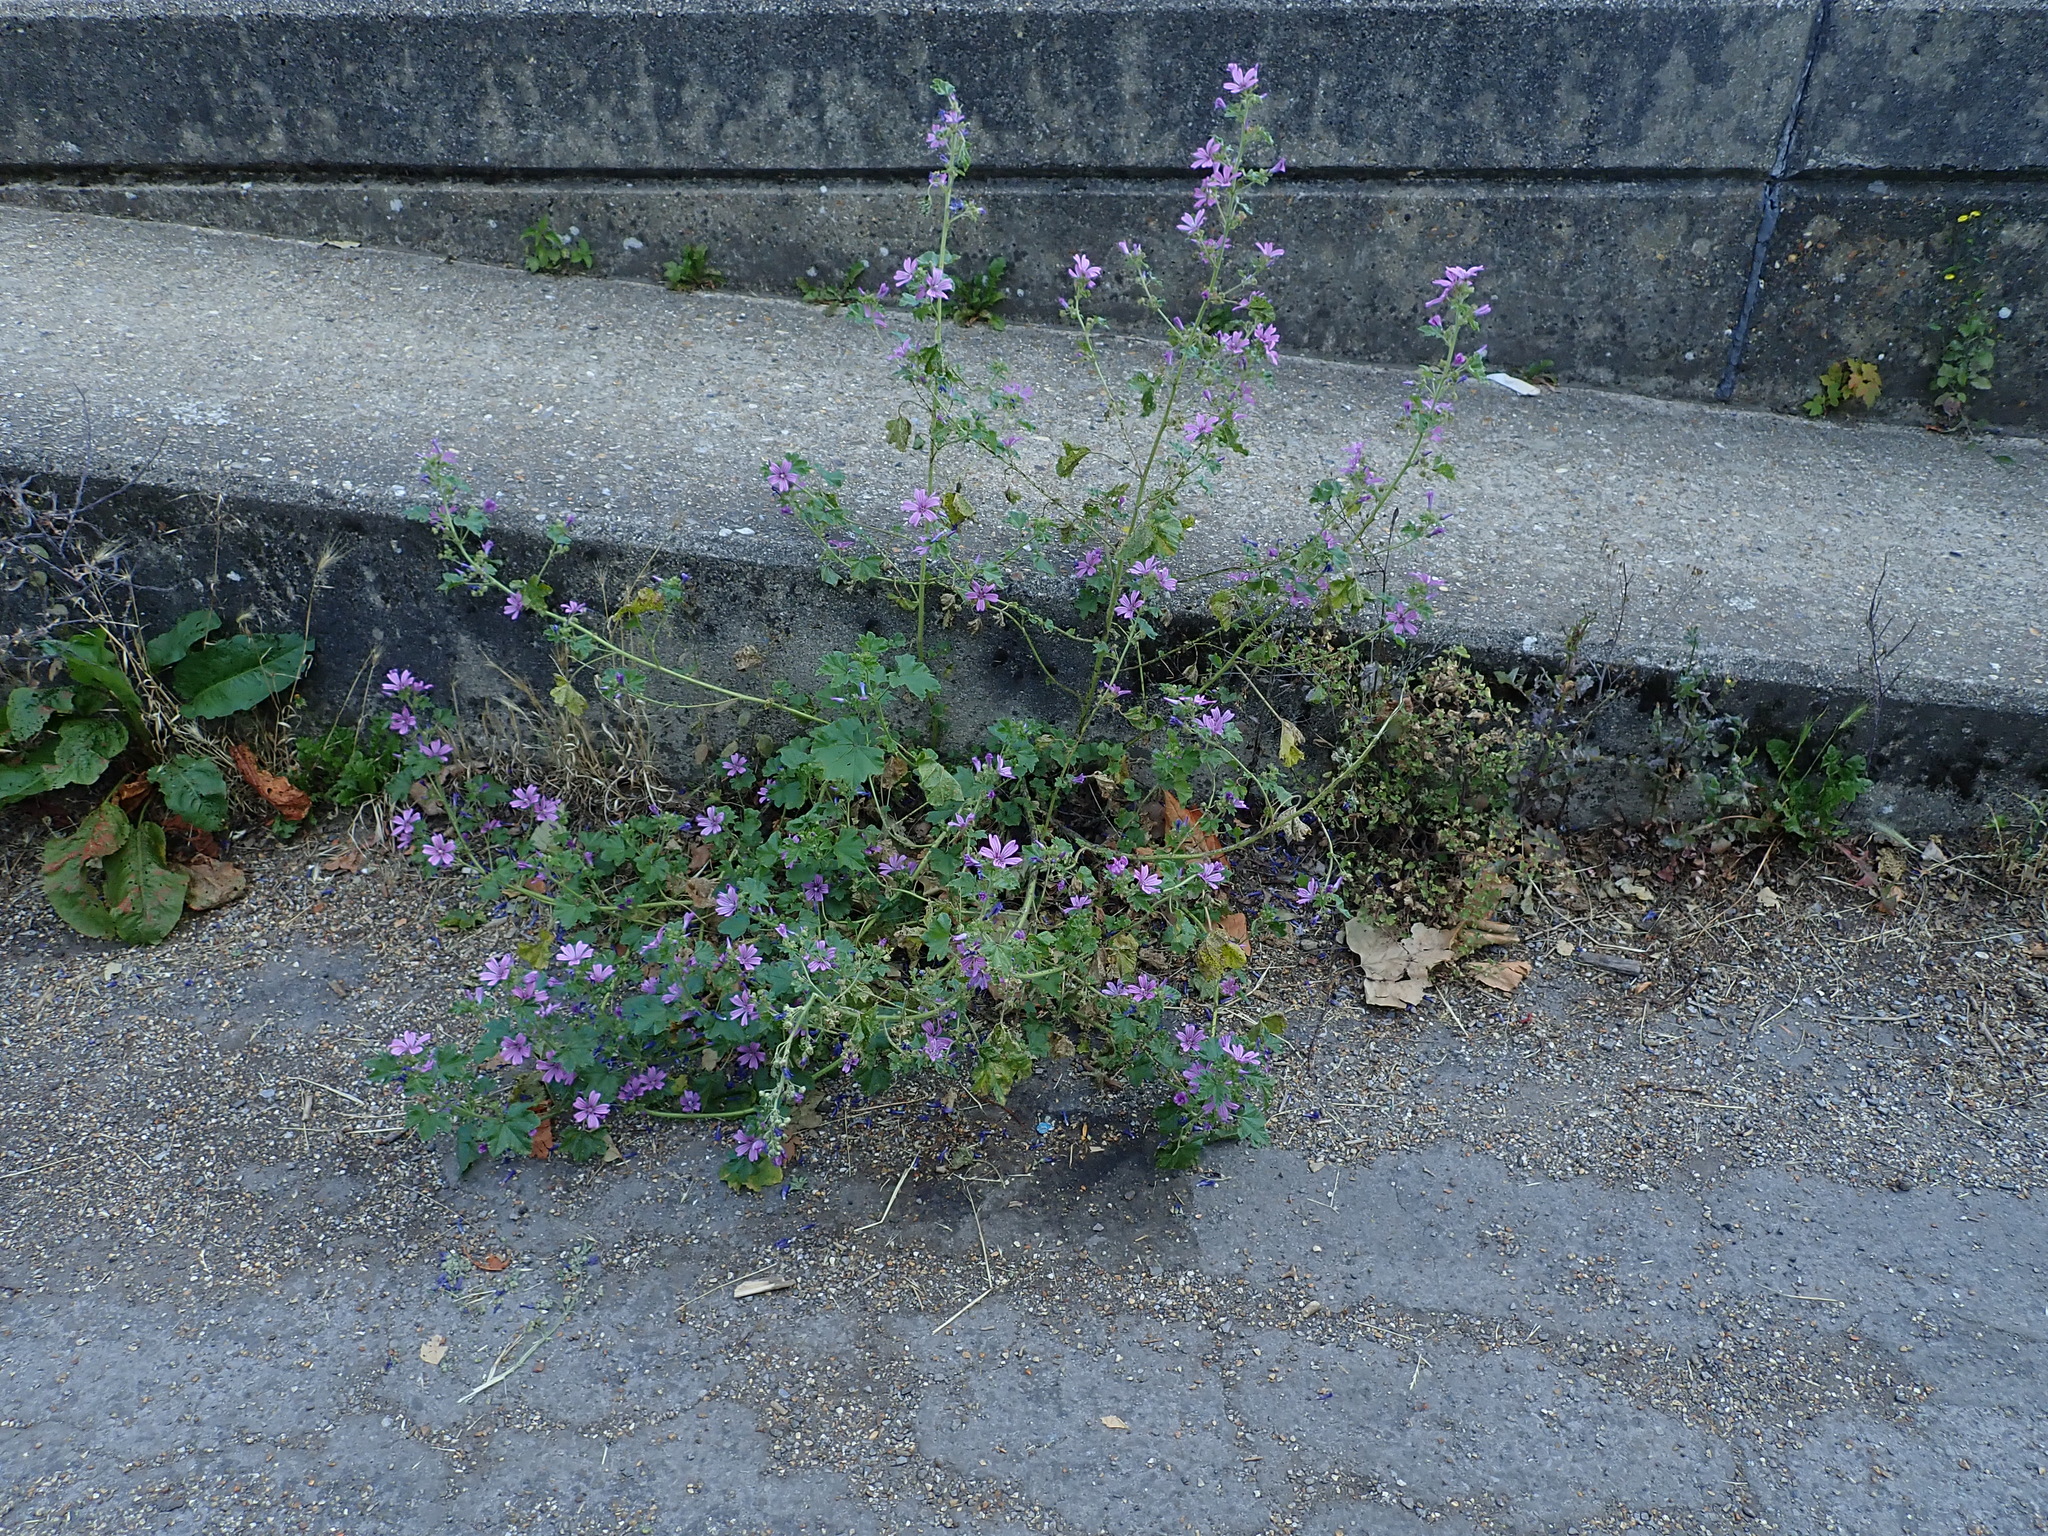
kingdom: Plantae
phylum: Tracheophyta
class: Magnoliopsida
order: Malvales
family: Malvaceae
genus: Malva
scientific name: Malva sylvestris
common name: Common mallow
